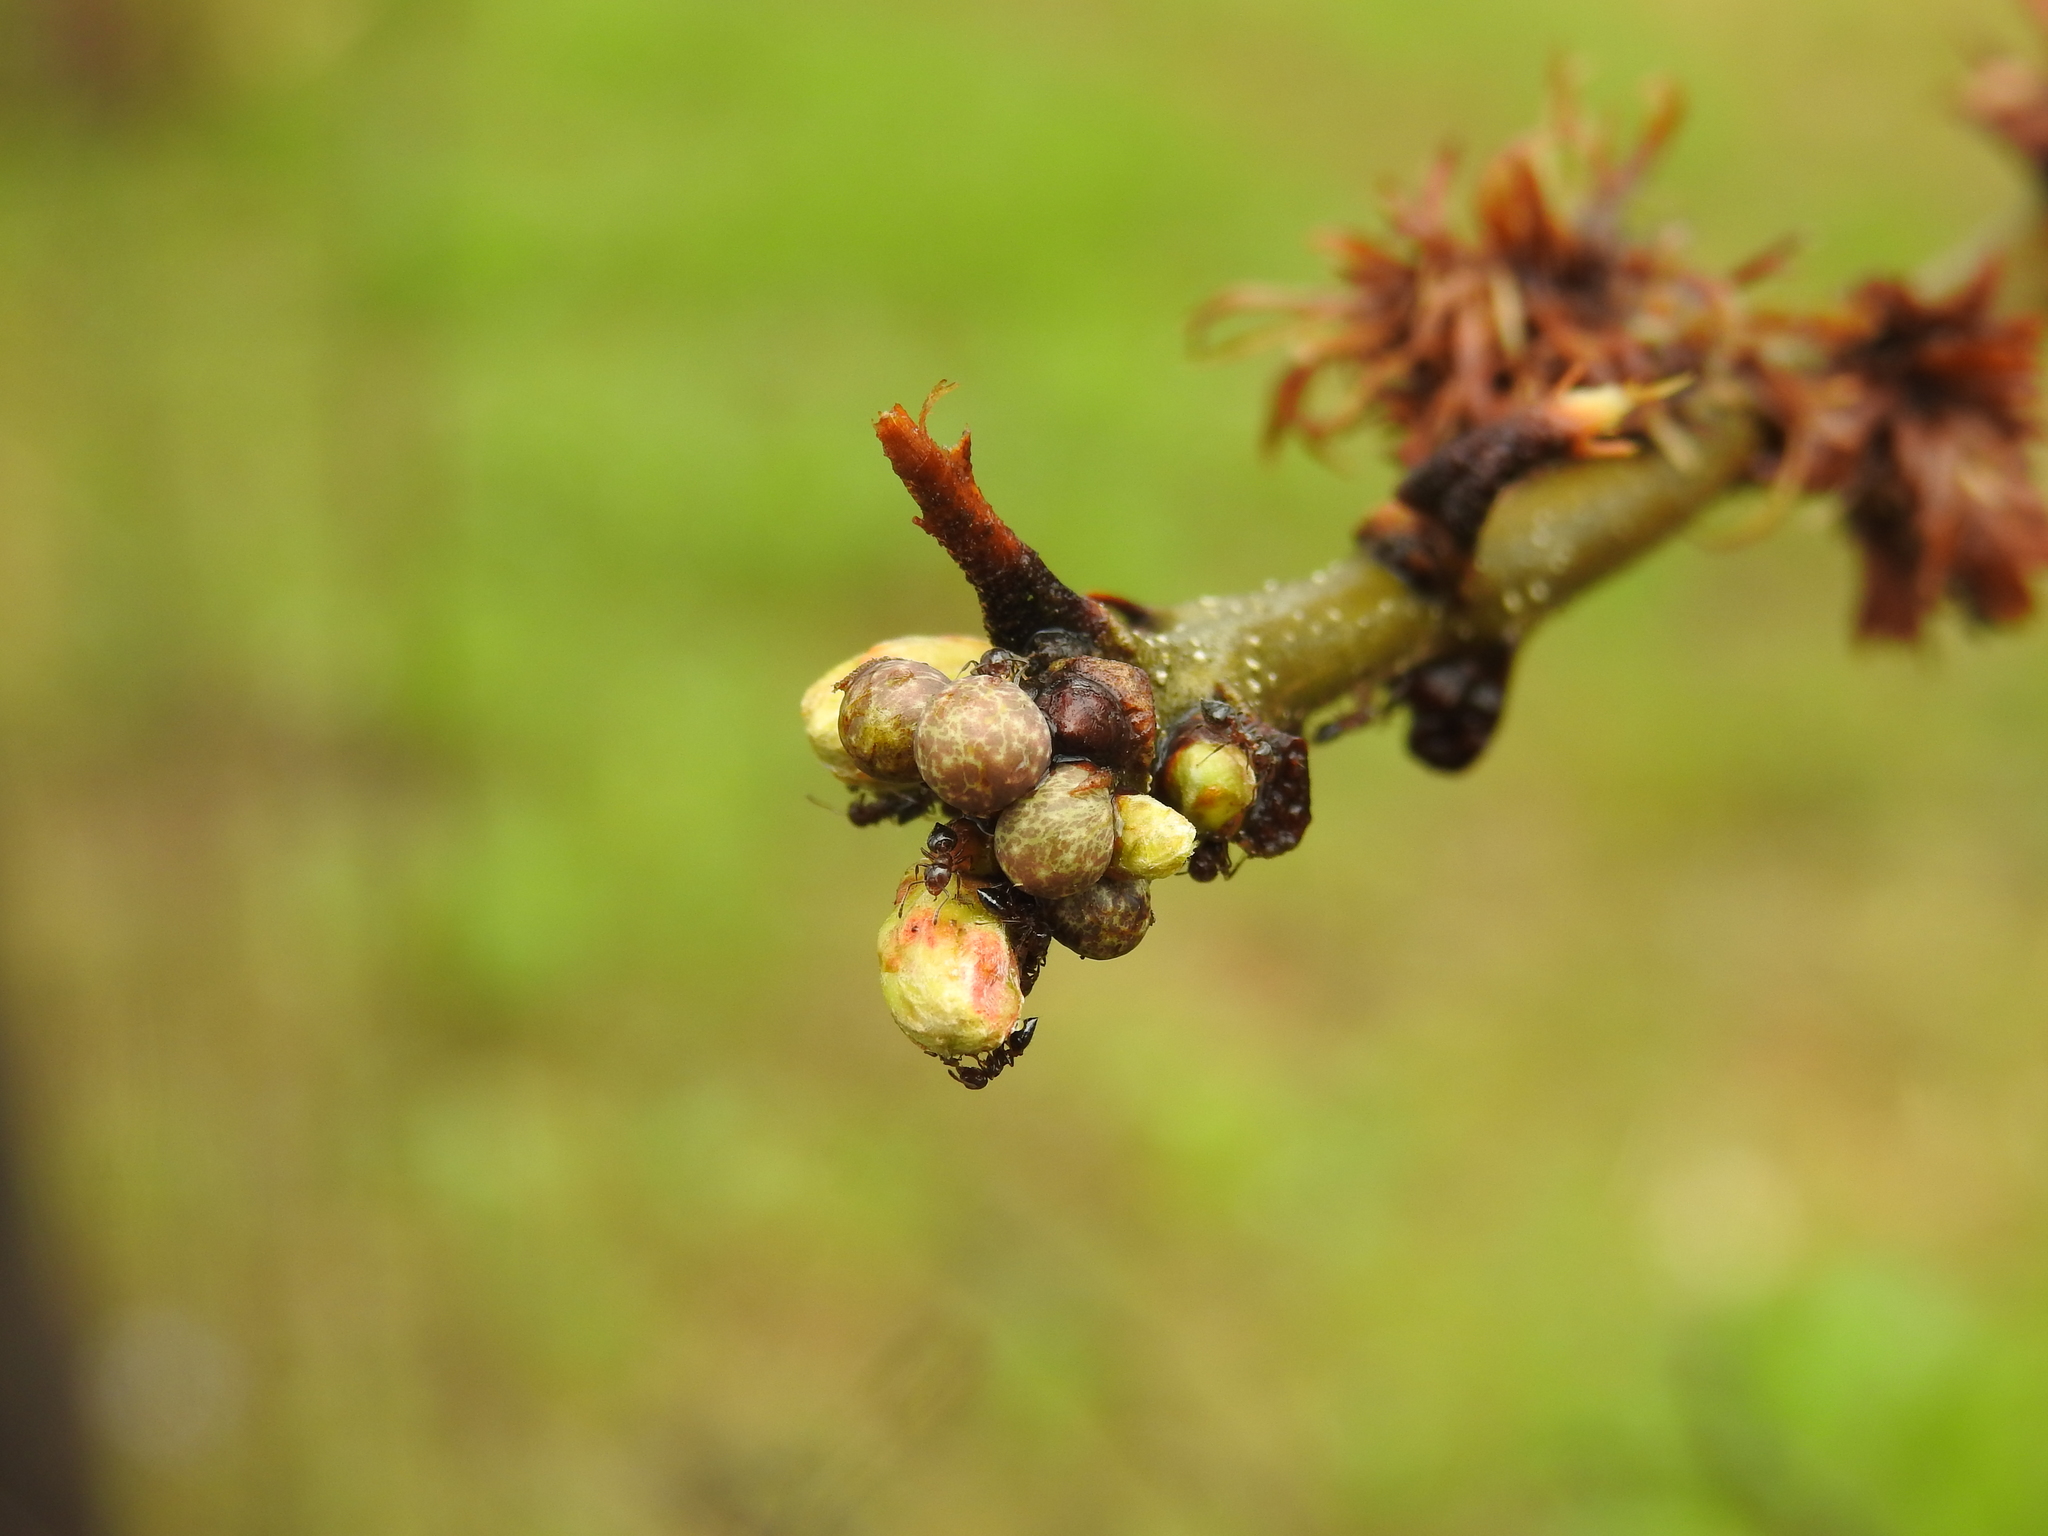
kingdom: Animalia
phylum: Arthropoda
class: Insecta
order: Hymenoptera
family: Cynipidae
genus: Neuroterus
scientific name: Neuroterus
